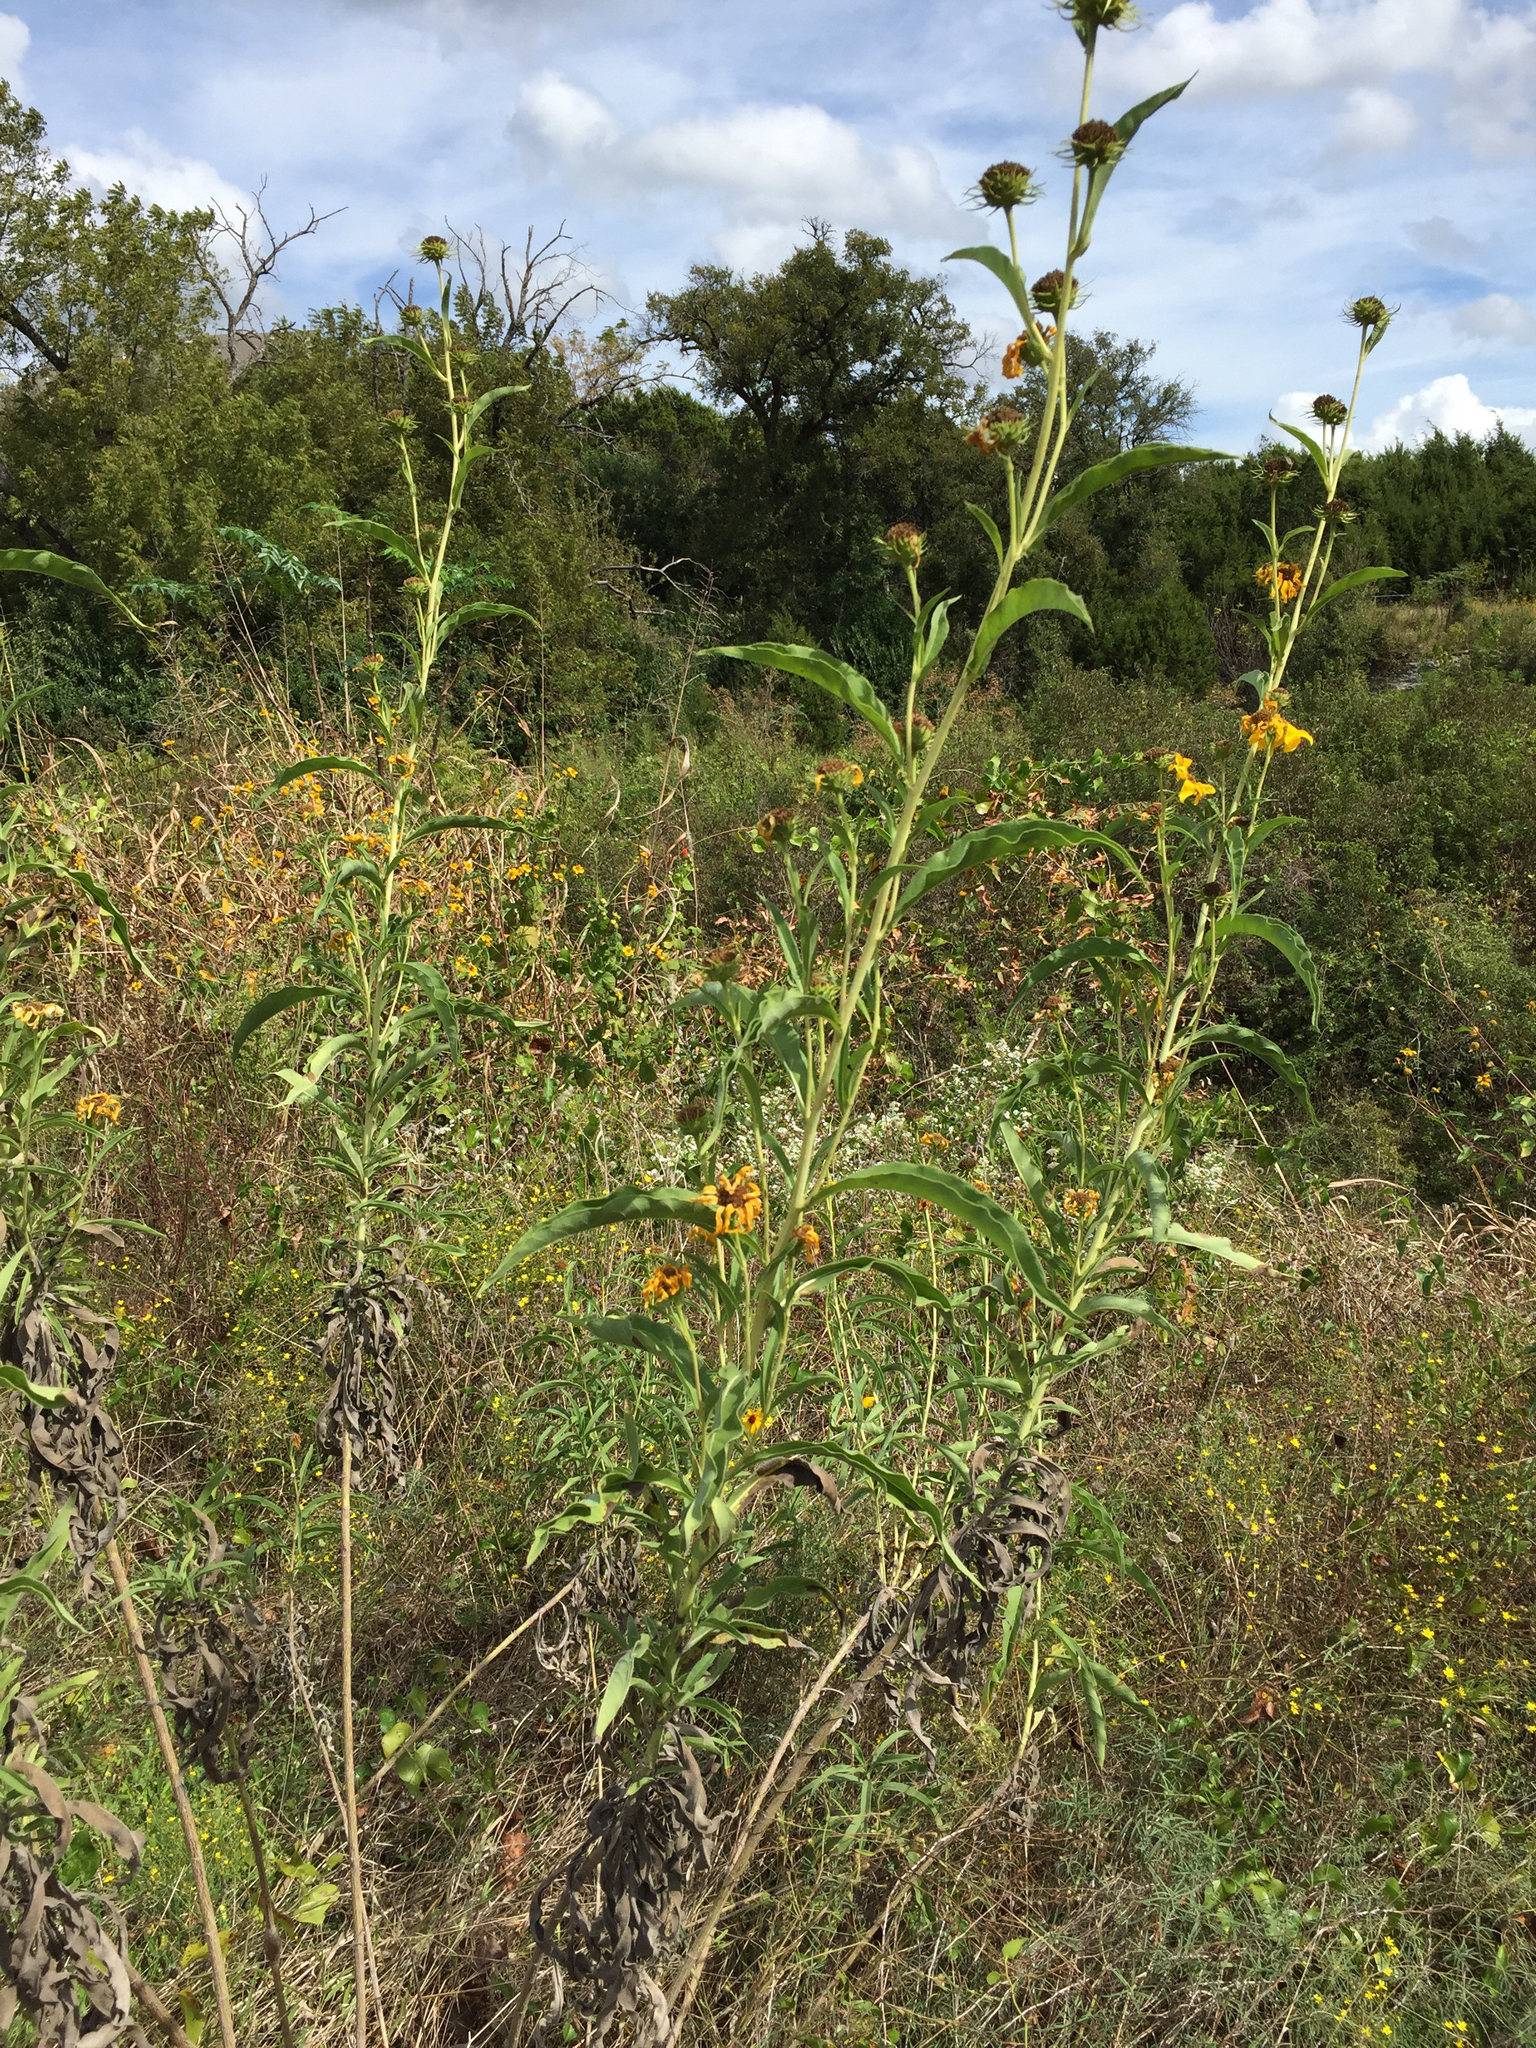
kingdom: Plantae
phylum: Tracheophyta
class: Magnoliopsida
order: Asterales
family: Asteraceae
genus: Helianthus
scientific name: Helianthus maximiliani
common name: Maximilian's sunflower
